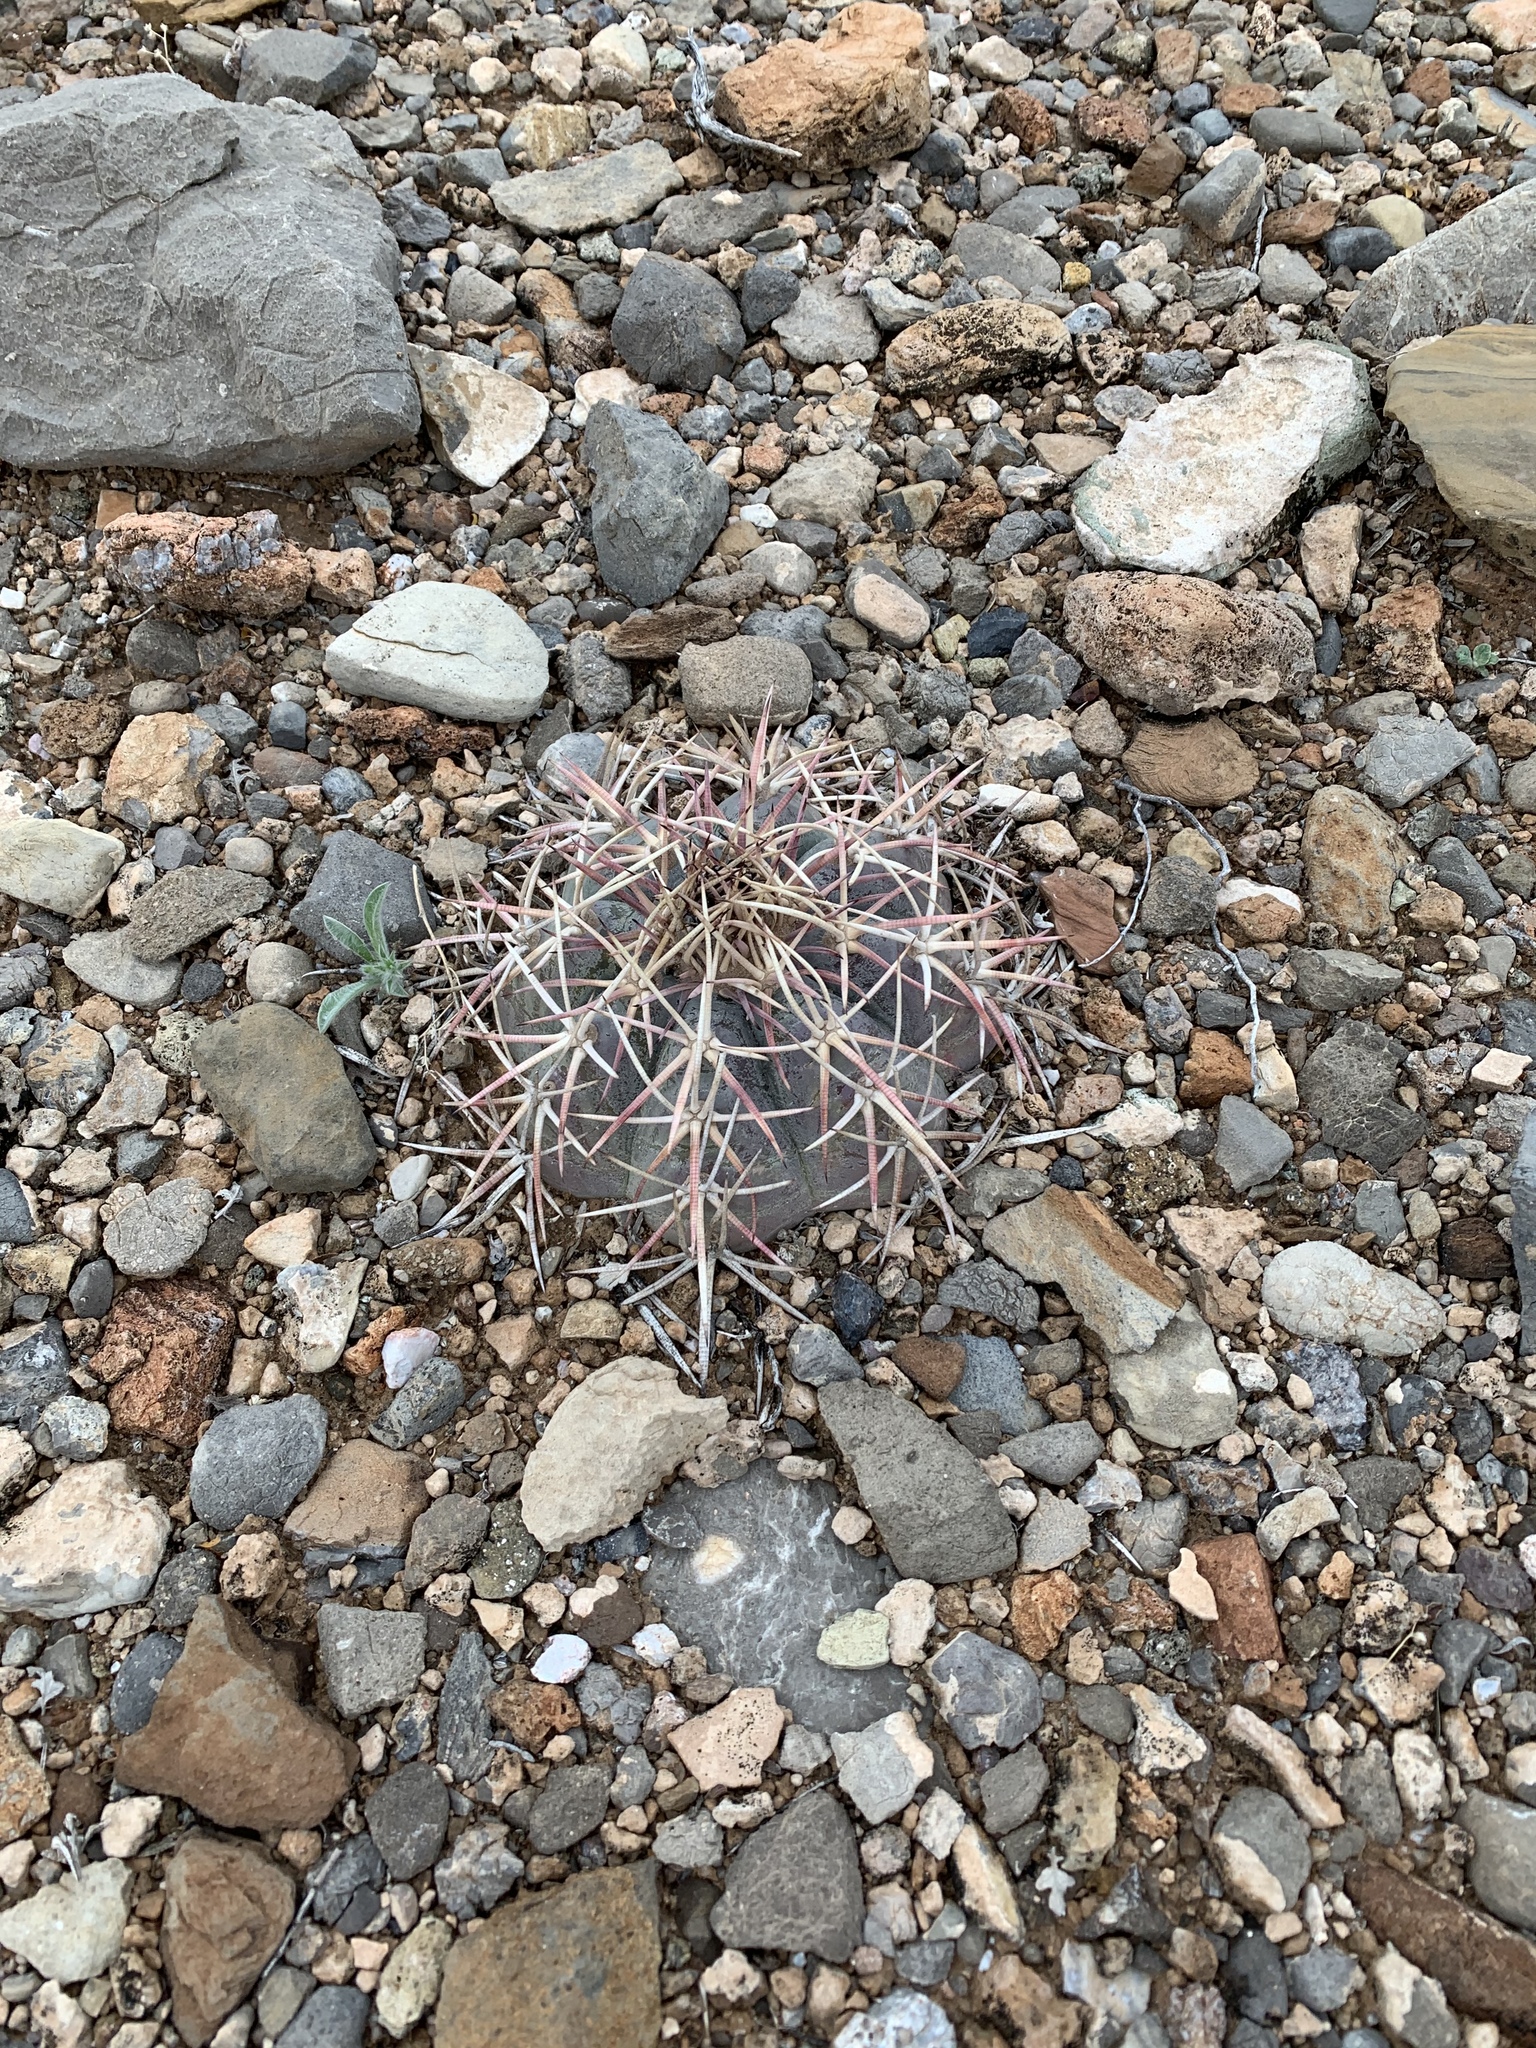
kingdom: Plantae
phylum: Tracheophyta
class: Magnoliopsida
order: Caryophyllales
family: Cactaceae
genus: Echinocactus
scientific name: Echinocactus horizonthalonius
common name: Devilshead
